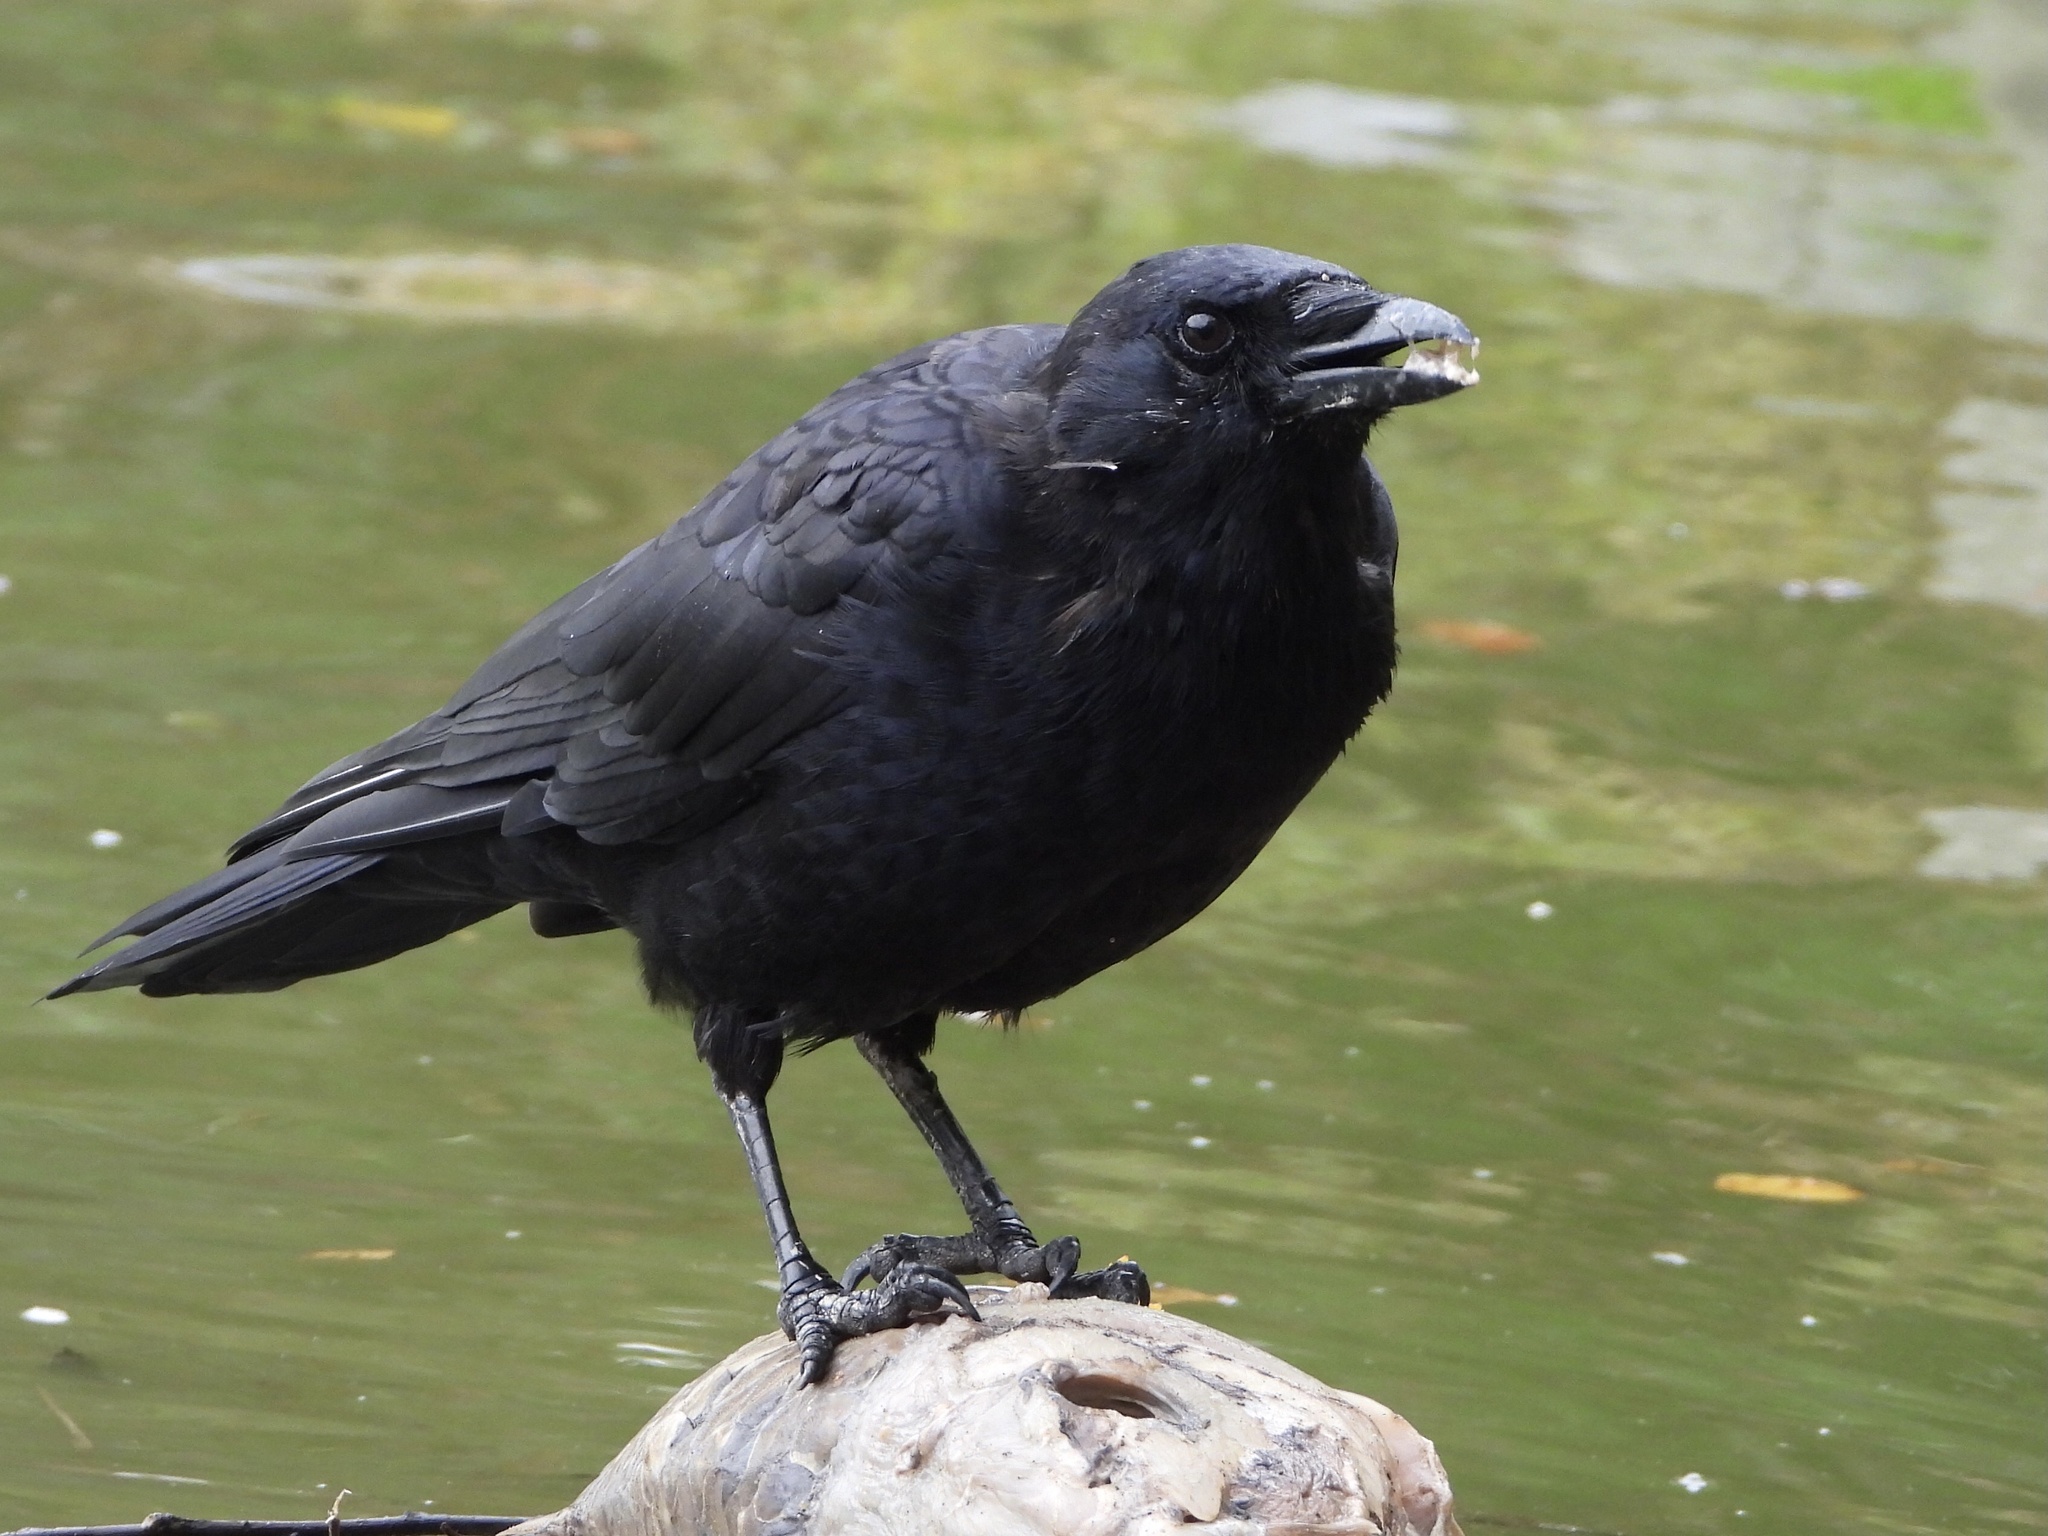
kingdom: Animalia
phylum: Chordata
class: Aves
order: Passeriformes
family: Corvidae
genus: Corvus
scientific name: Corvus brachyrhynchos
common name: American crow
